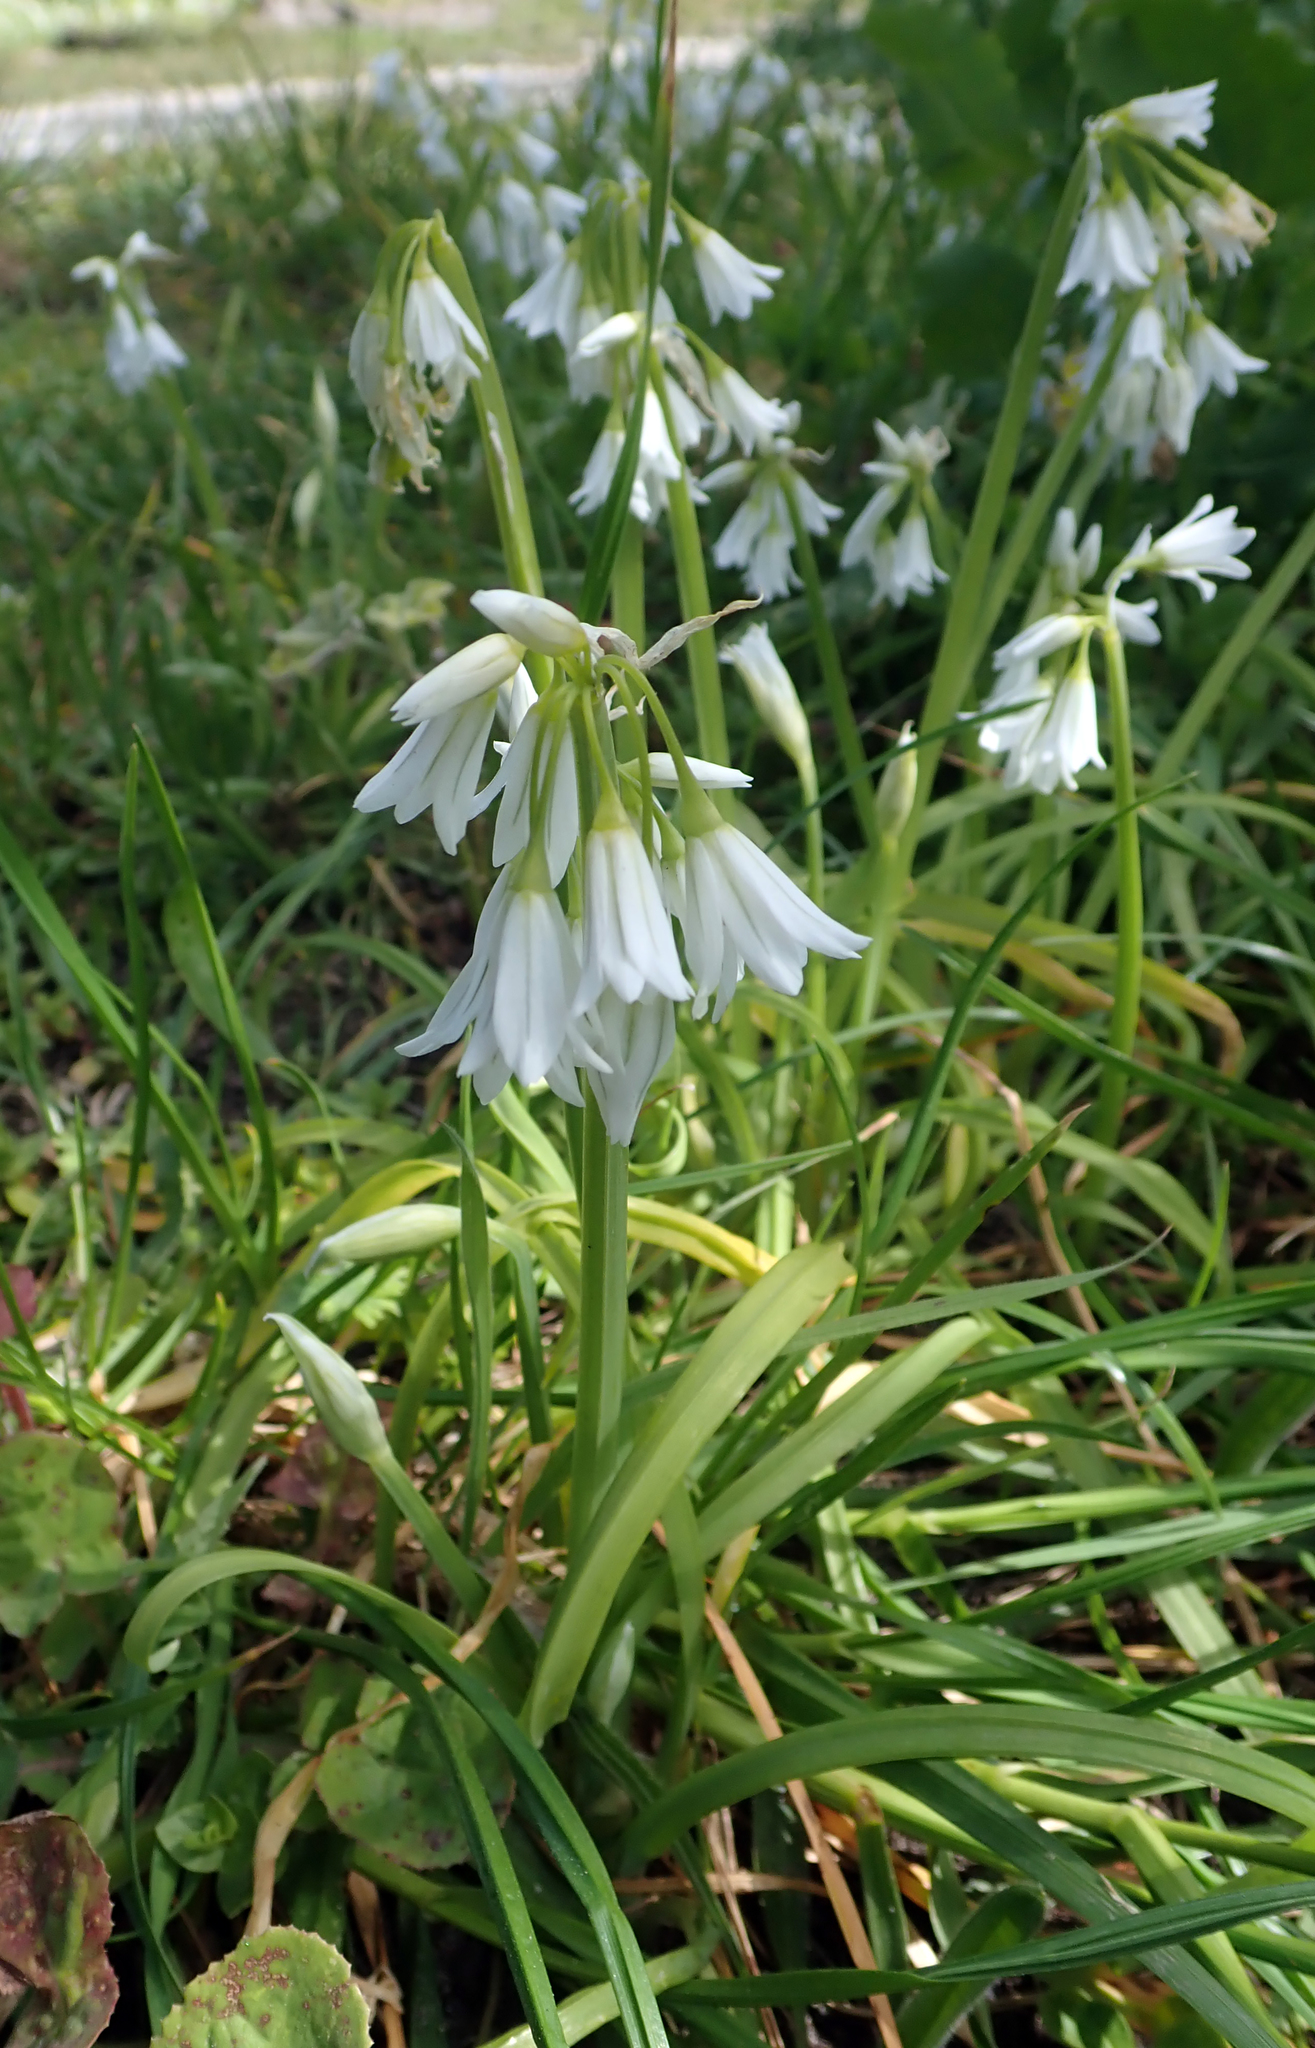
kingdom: Plantae
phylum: Tracheophyta
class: Liliopsida
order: Asparagales
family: Amaryllidaceae
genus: Allium
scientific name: Allium triquetrum
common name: Three-cornered garlic
